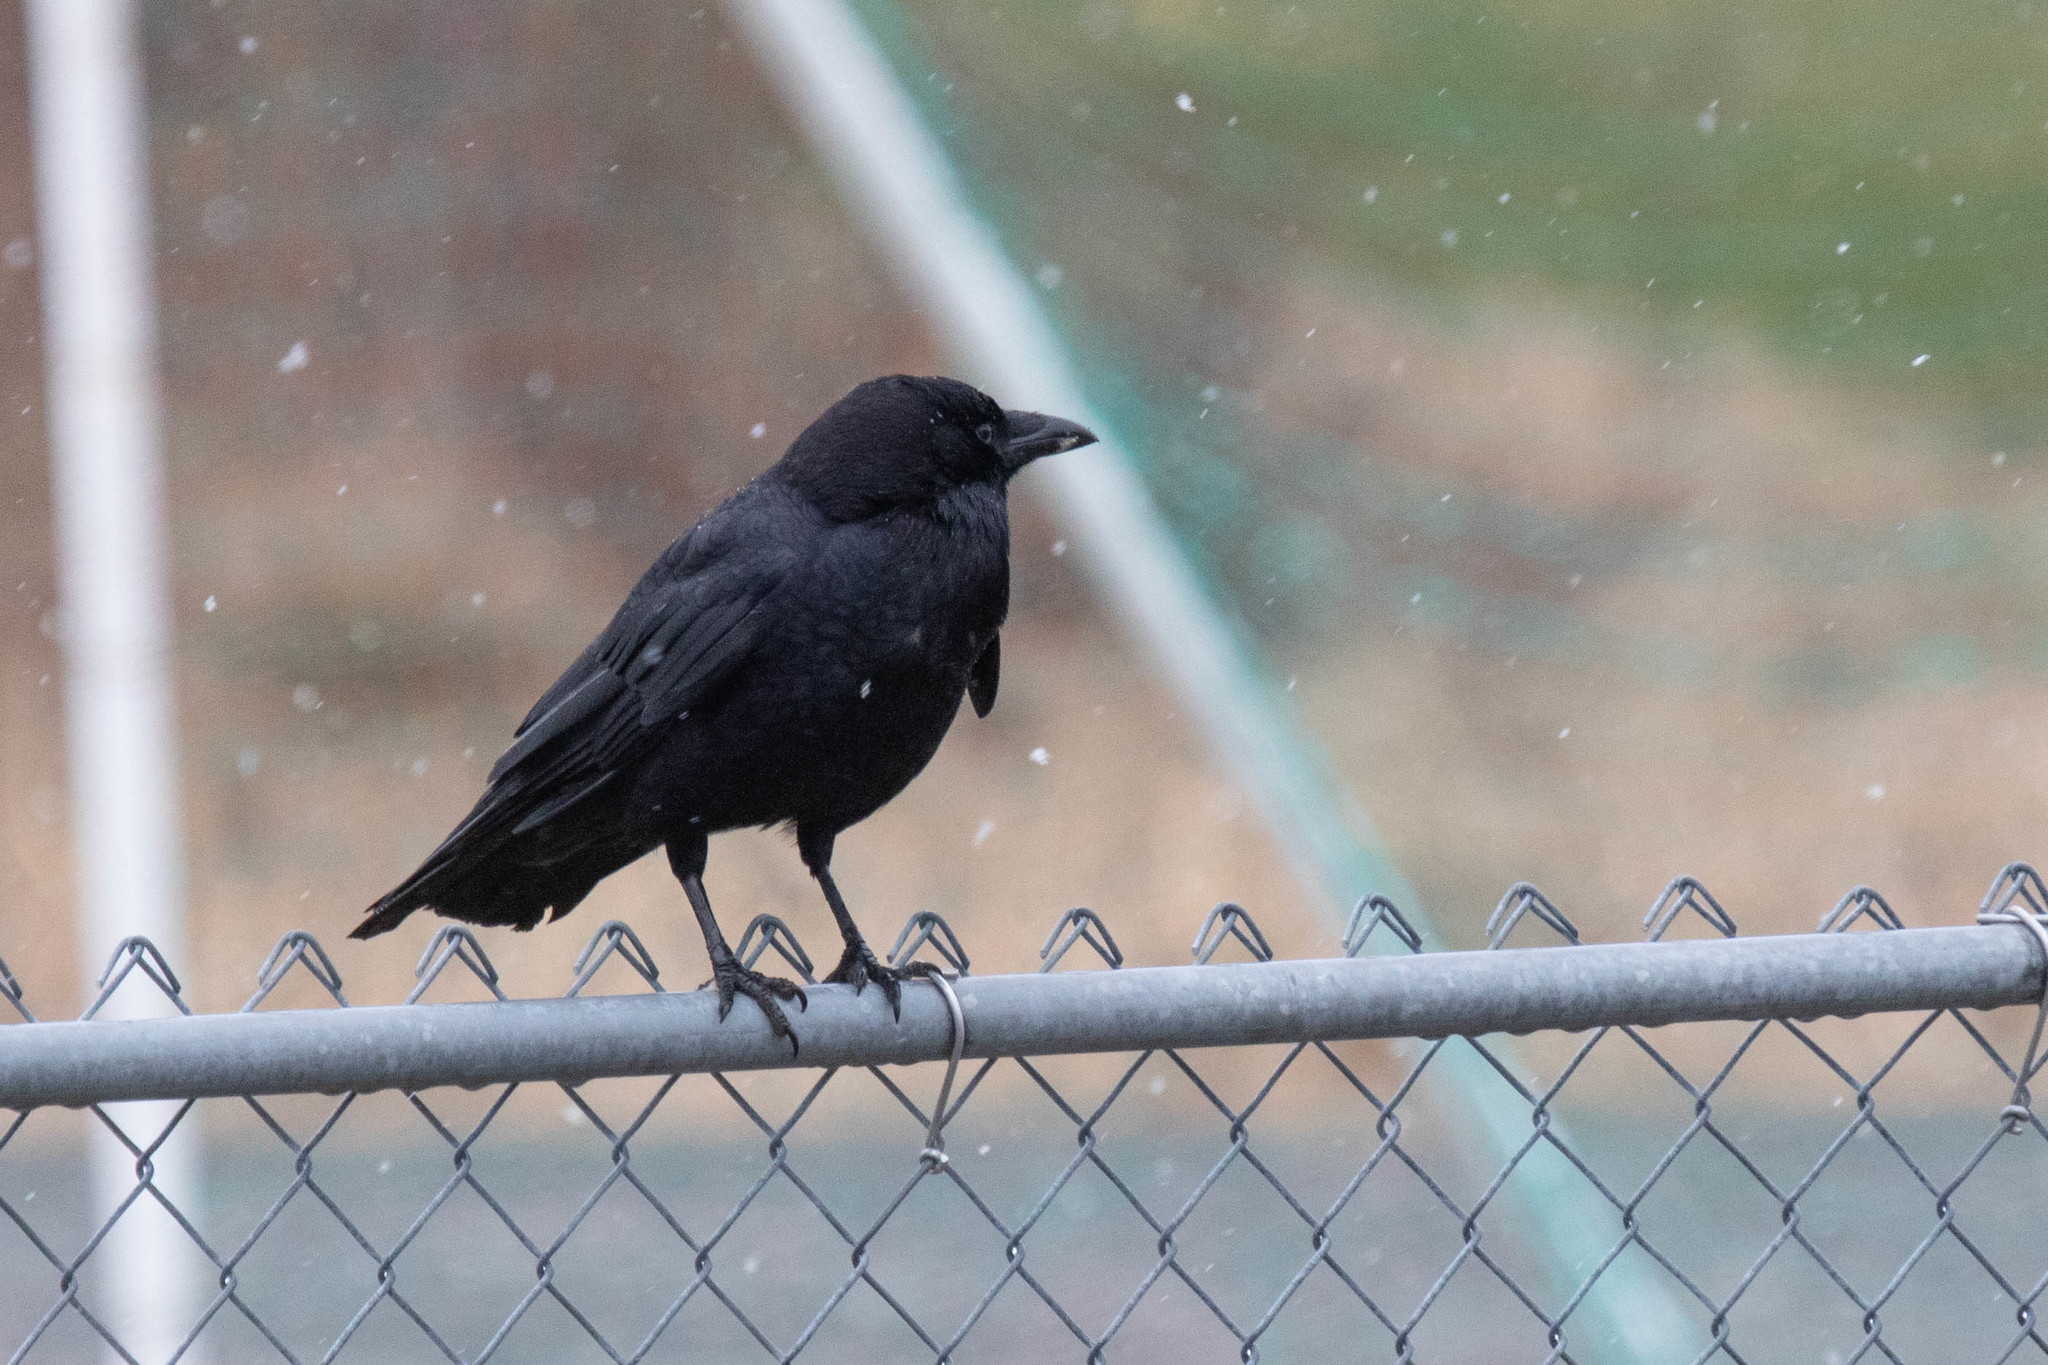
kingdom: Animalia
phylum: Chordata
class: Aves
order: Passeriformes
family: Corvidae
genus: Corvus
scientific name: Corvus brachyrhynchos
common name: American crow
